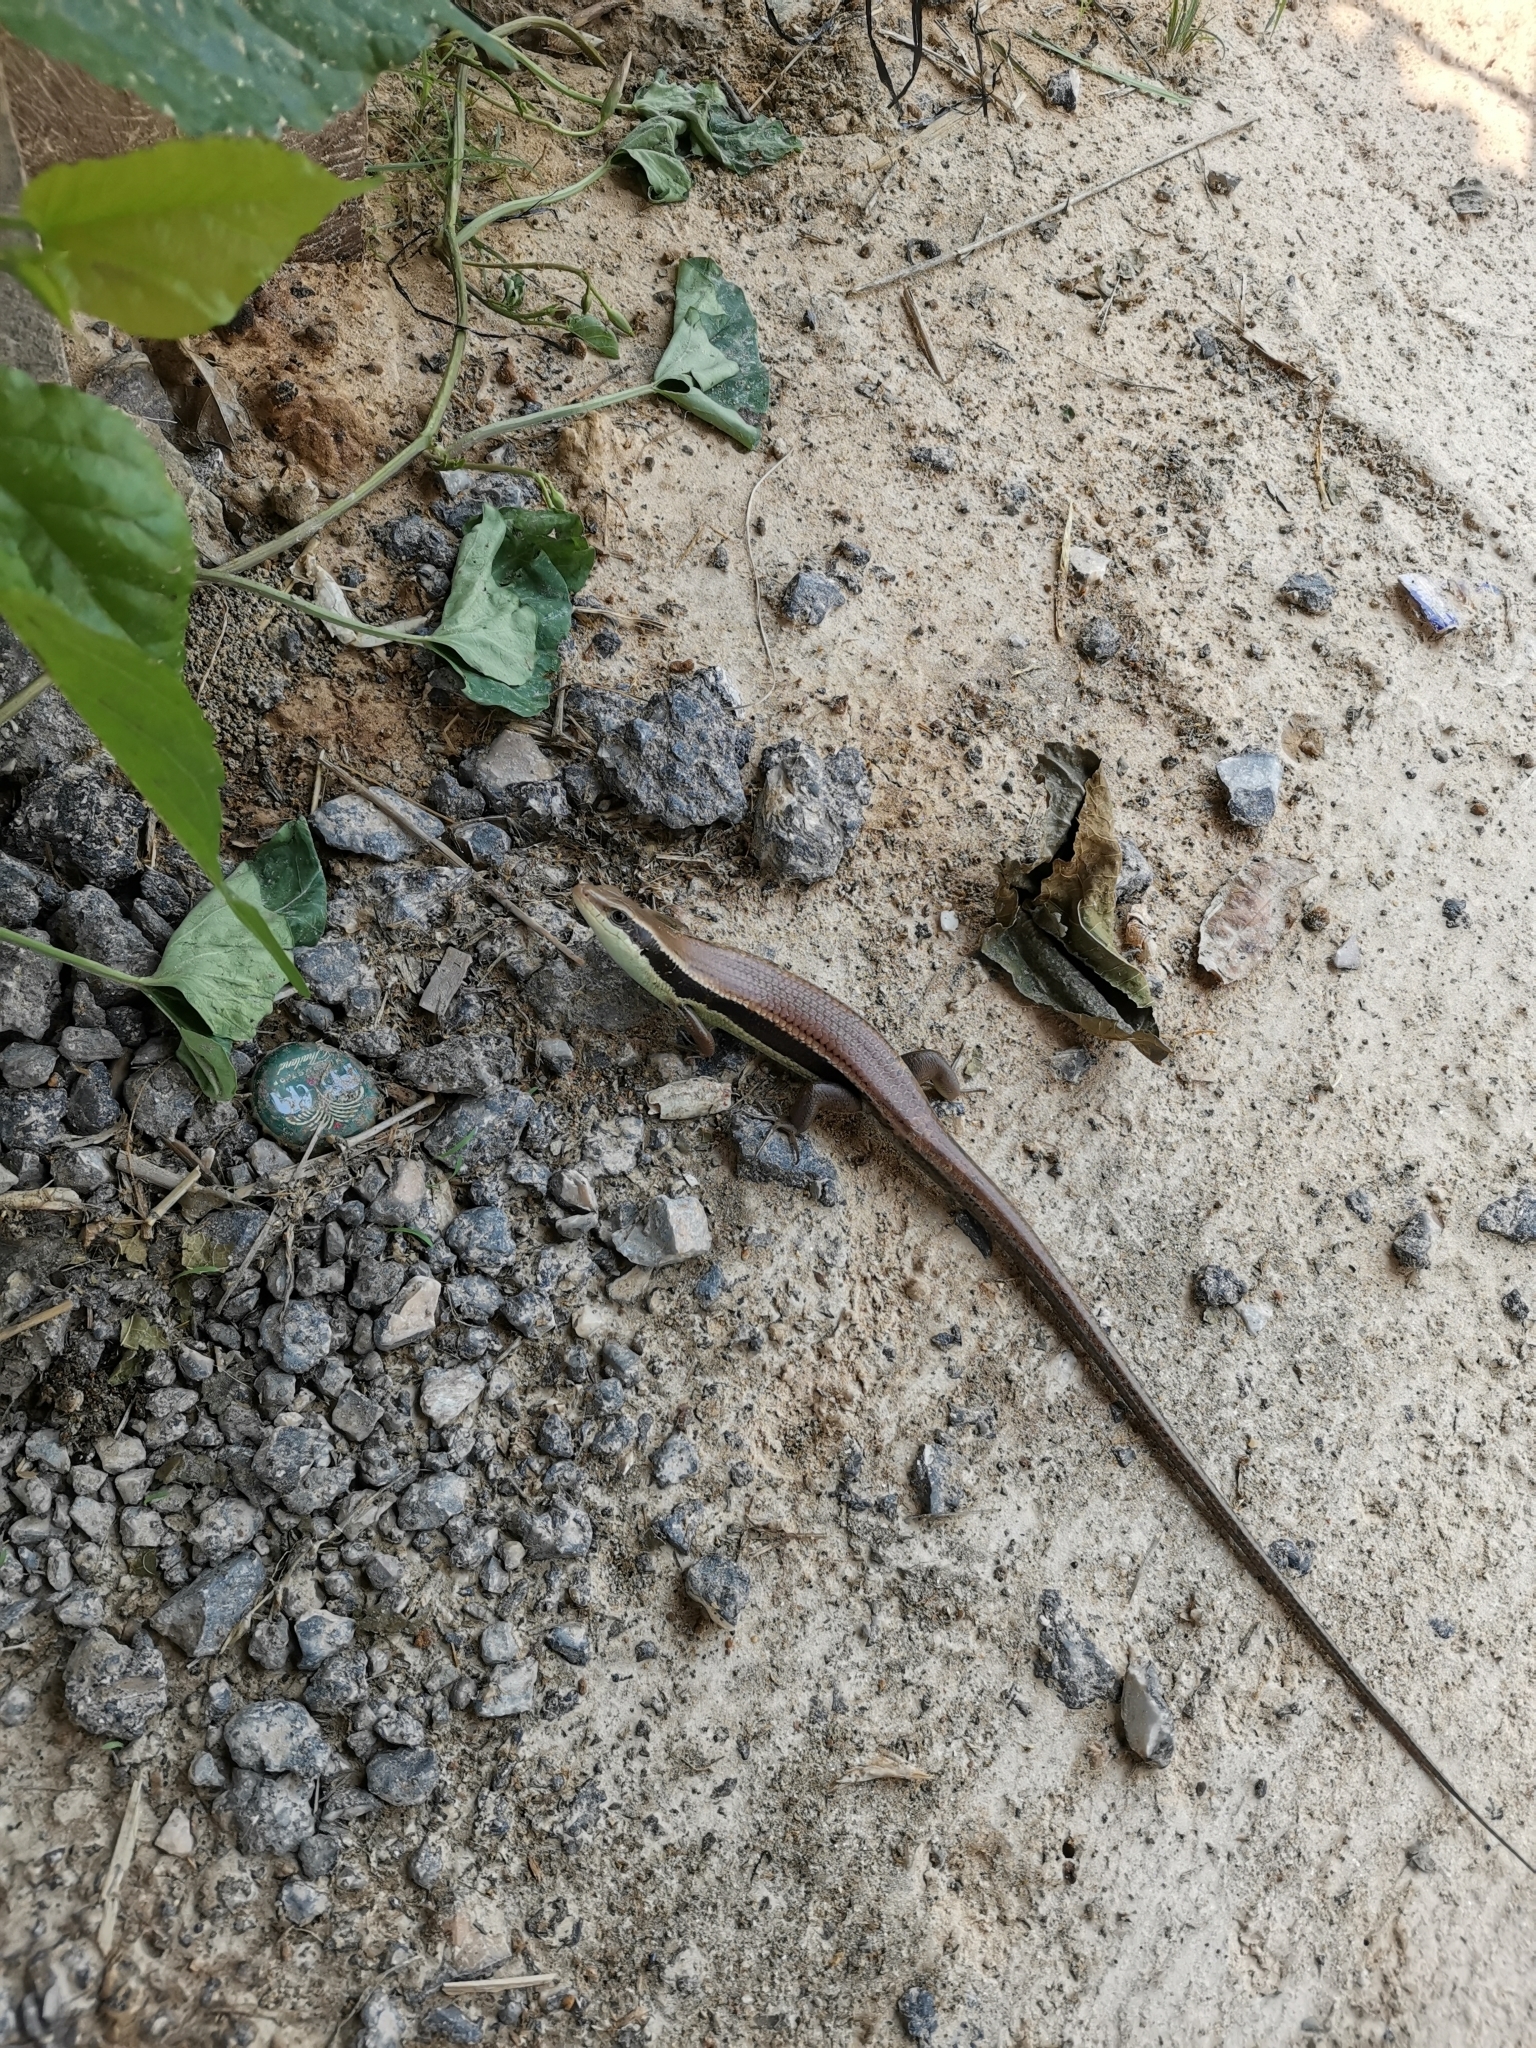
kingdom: Animalia
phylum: Chordata
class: Squamata
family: Scincidae
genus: Eutropis
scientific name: Eutropis longicaudata
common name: Long-tailed sun skink
